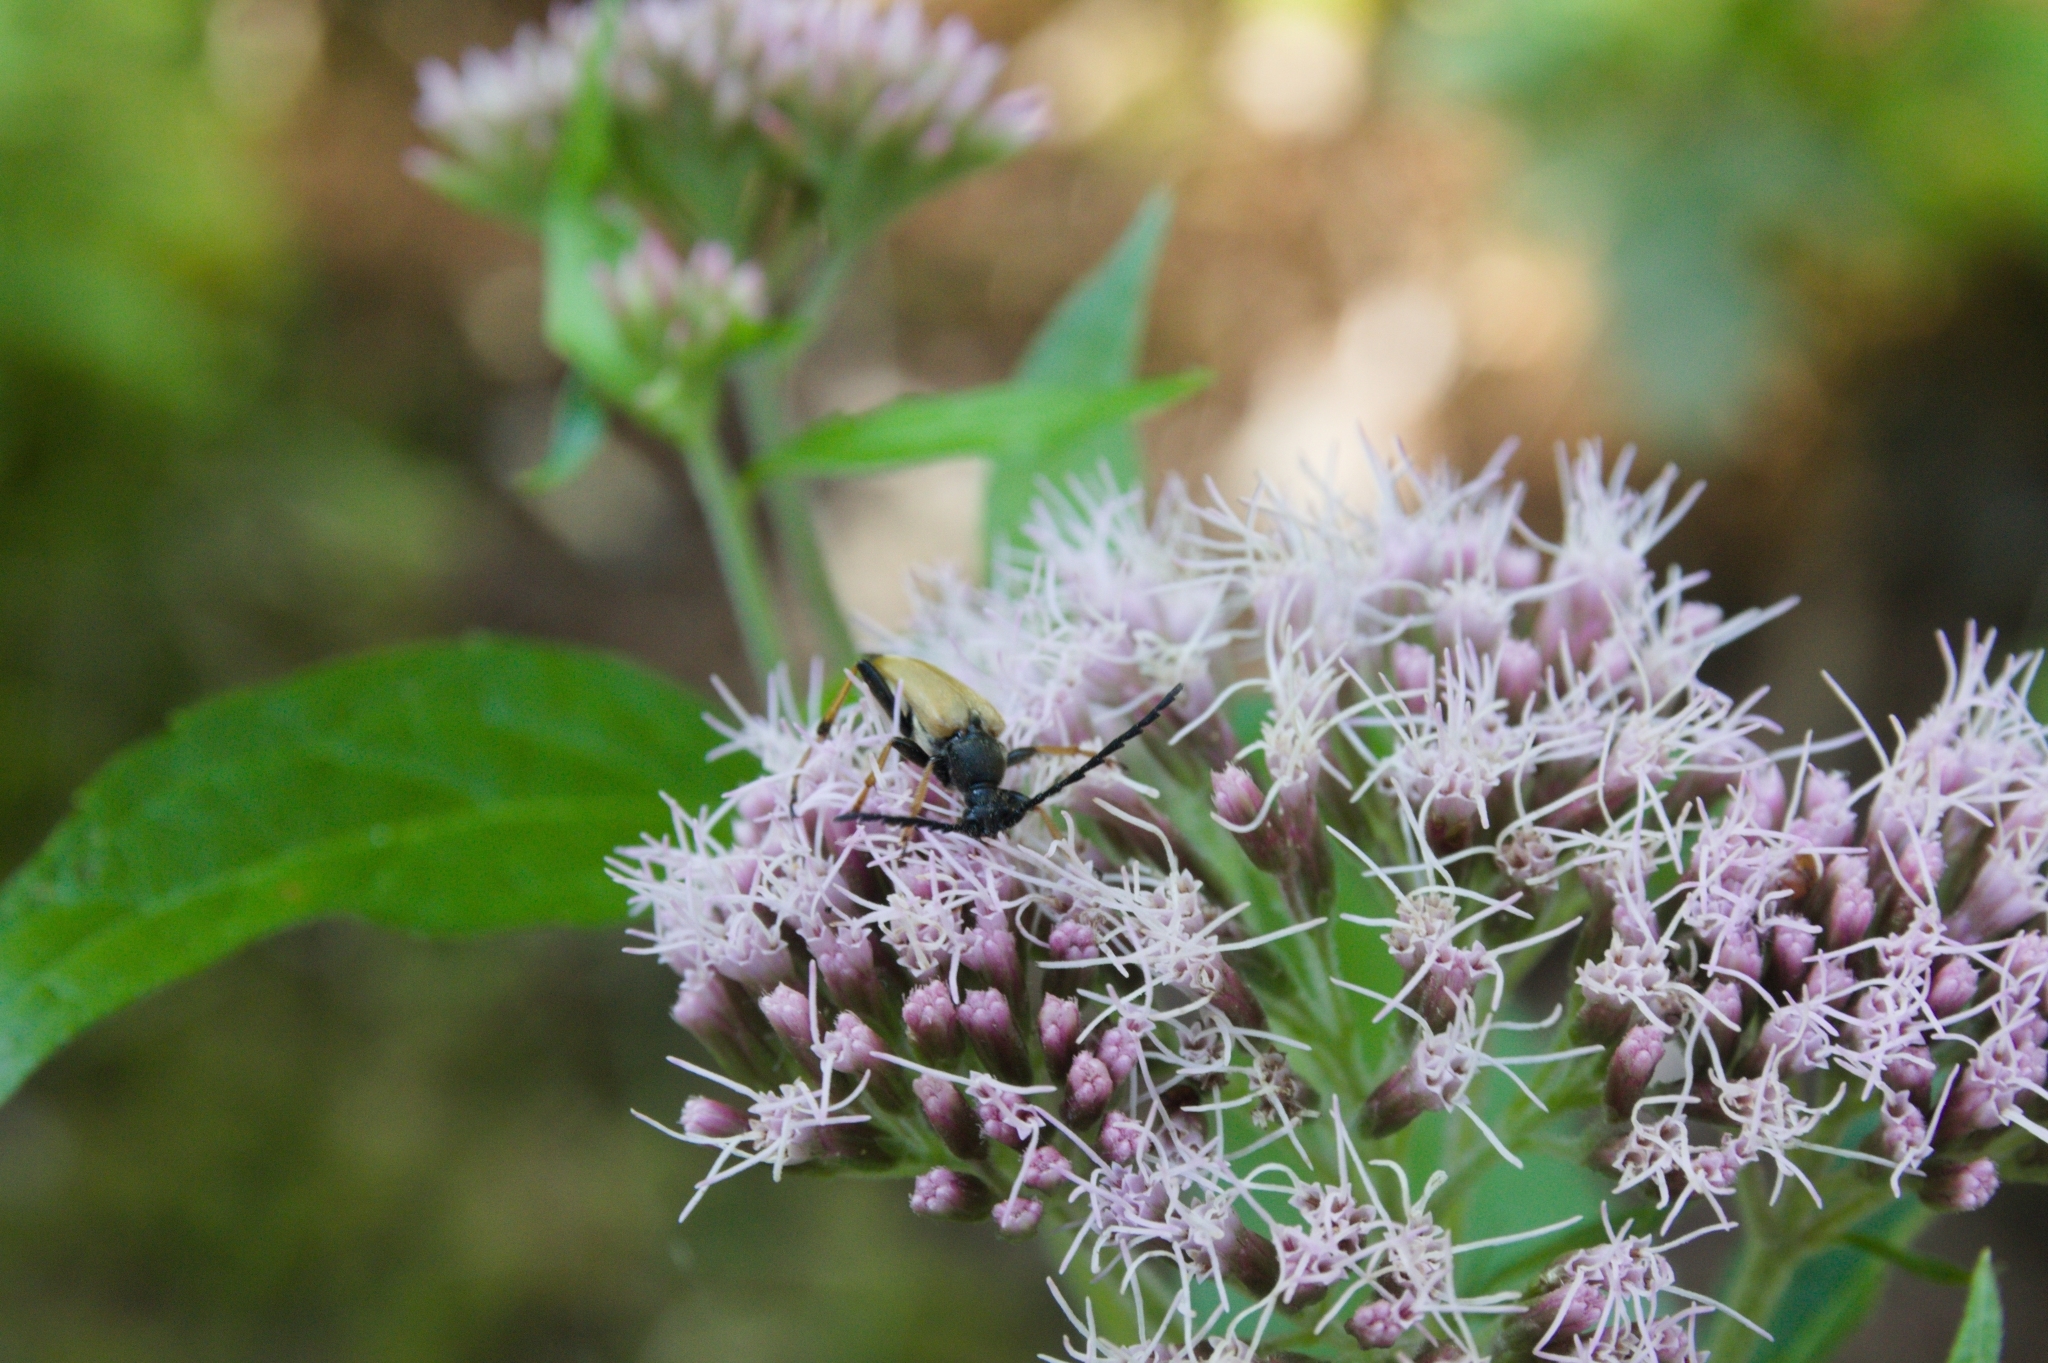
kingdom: Animalia
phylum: Arthropoda
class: Insecta
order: Coleoptera
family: Cerambycidae
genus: Stictoleptura
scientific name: Stictoleptura rubra
